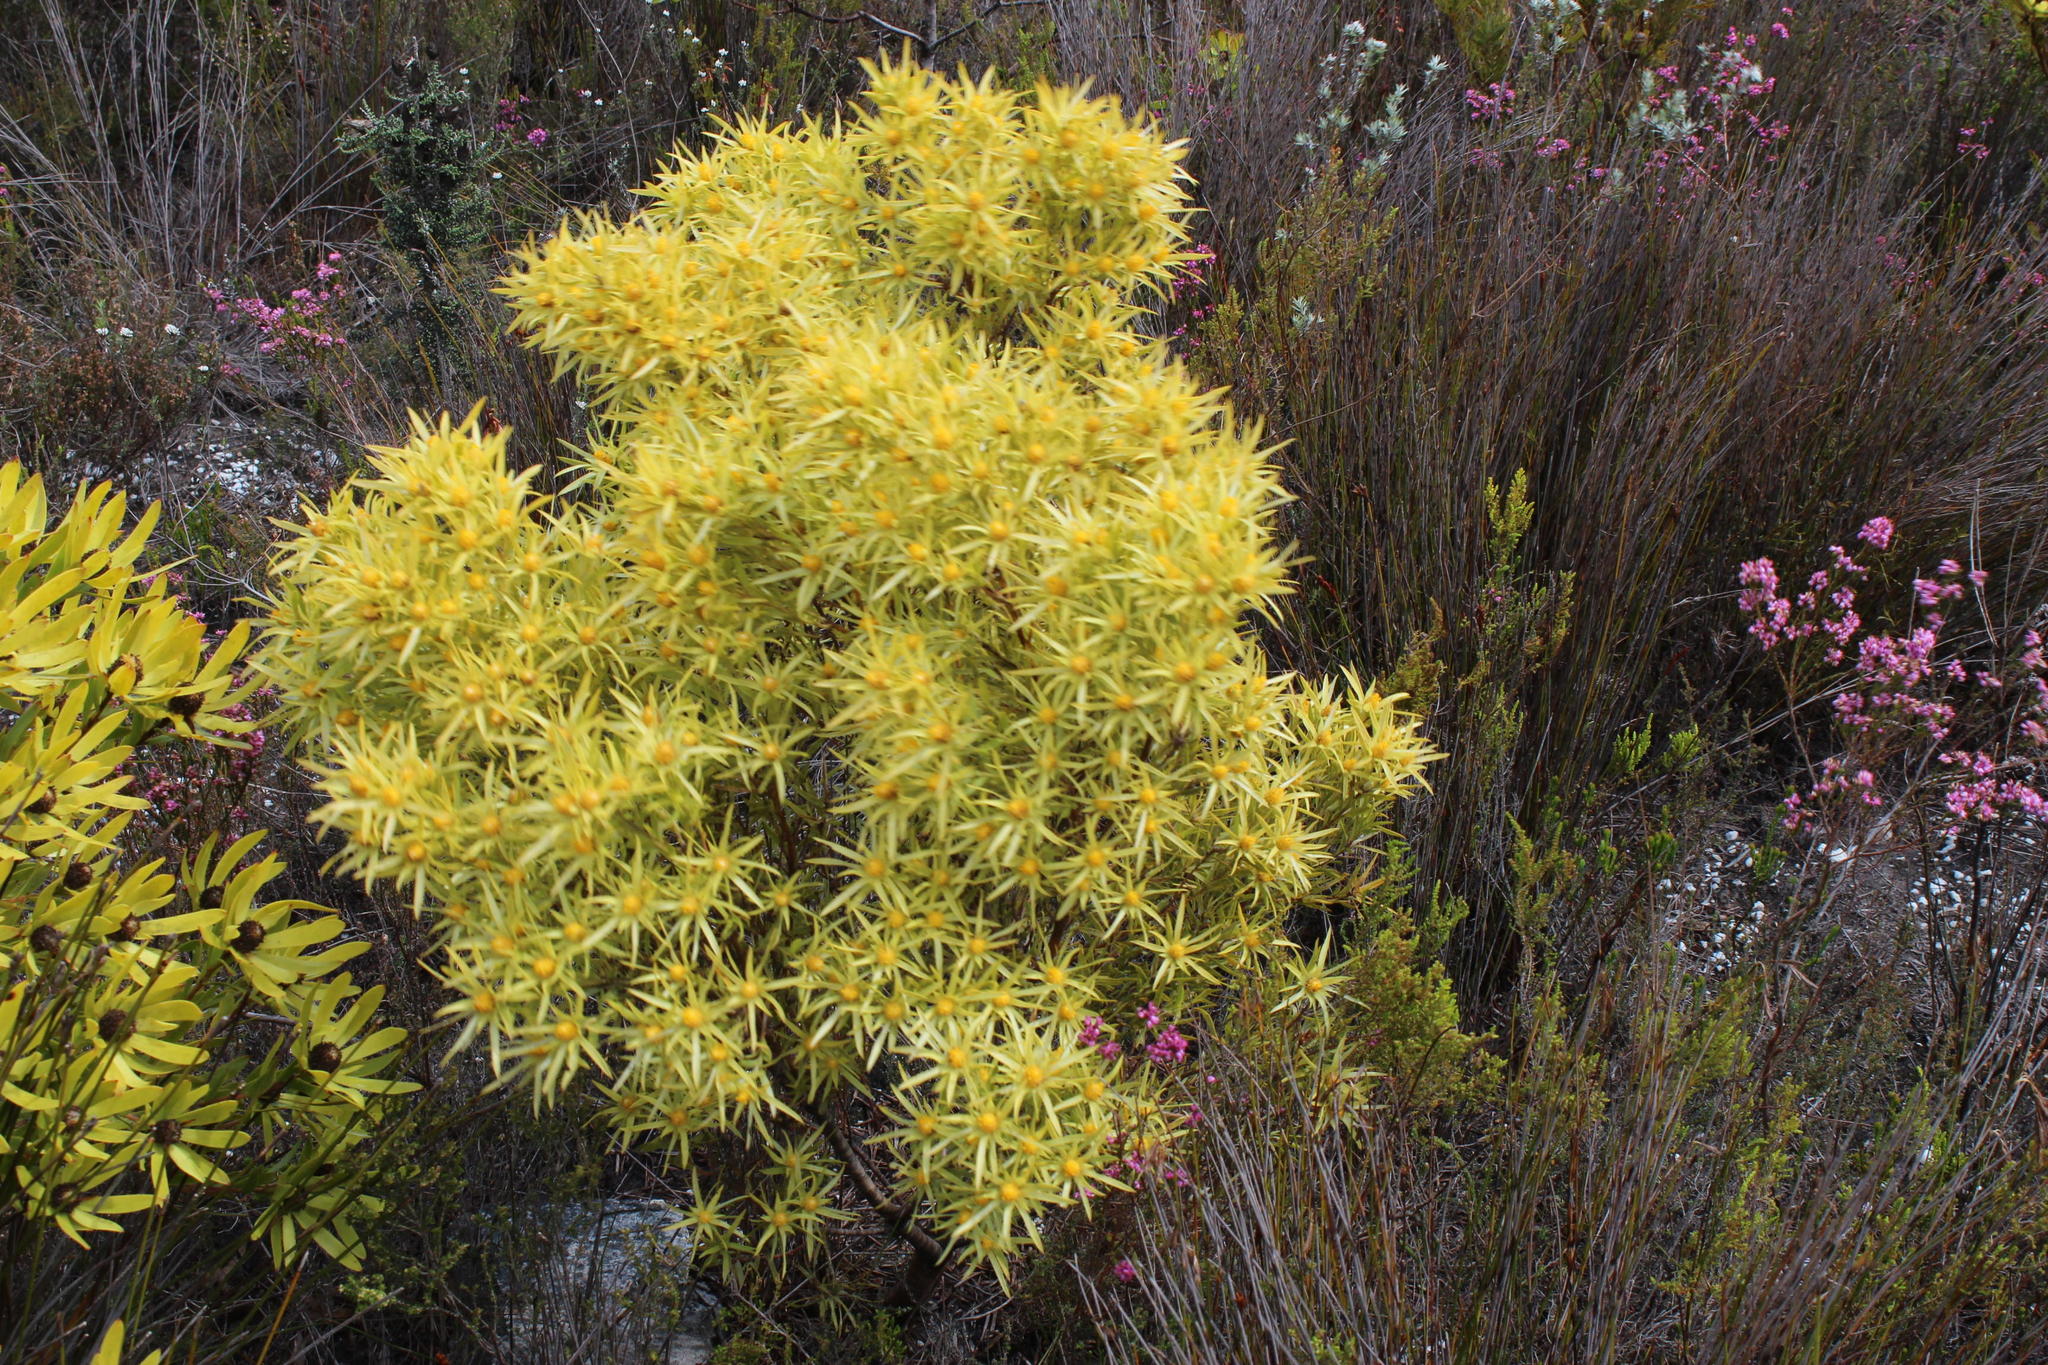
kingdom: Plantae
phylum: Tracheophyta
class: Magnoliopsida
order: Proteales
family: Proteaceae
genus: Leucadendron
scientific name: Leucadendron xanthoconus
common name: Sickle-leaf conebush
